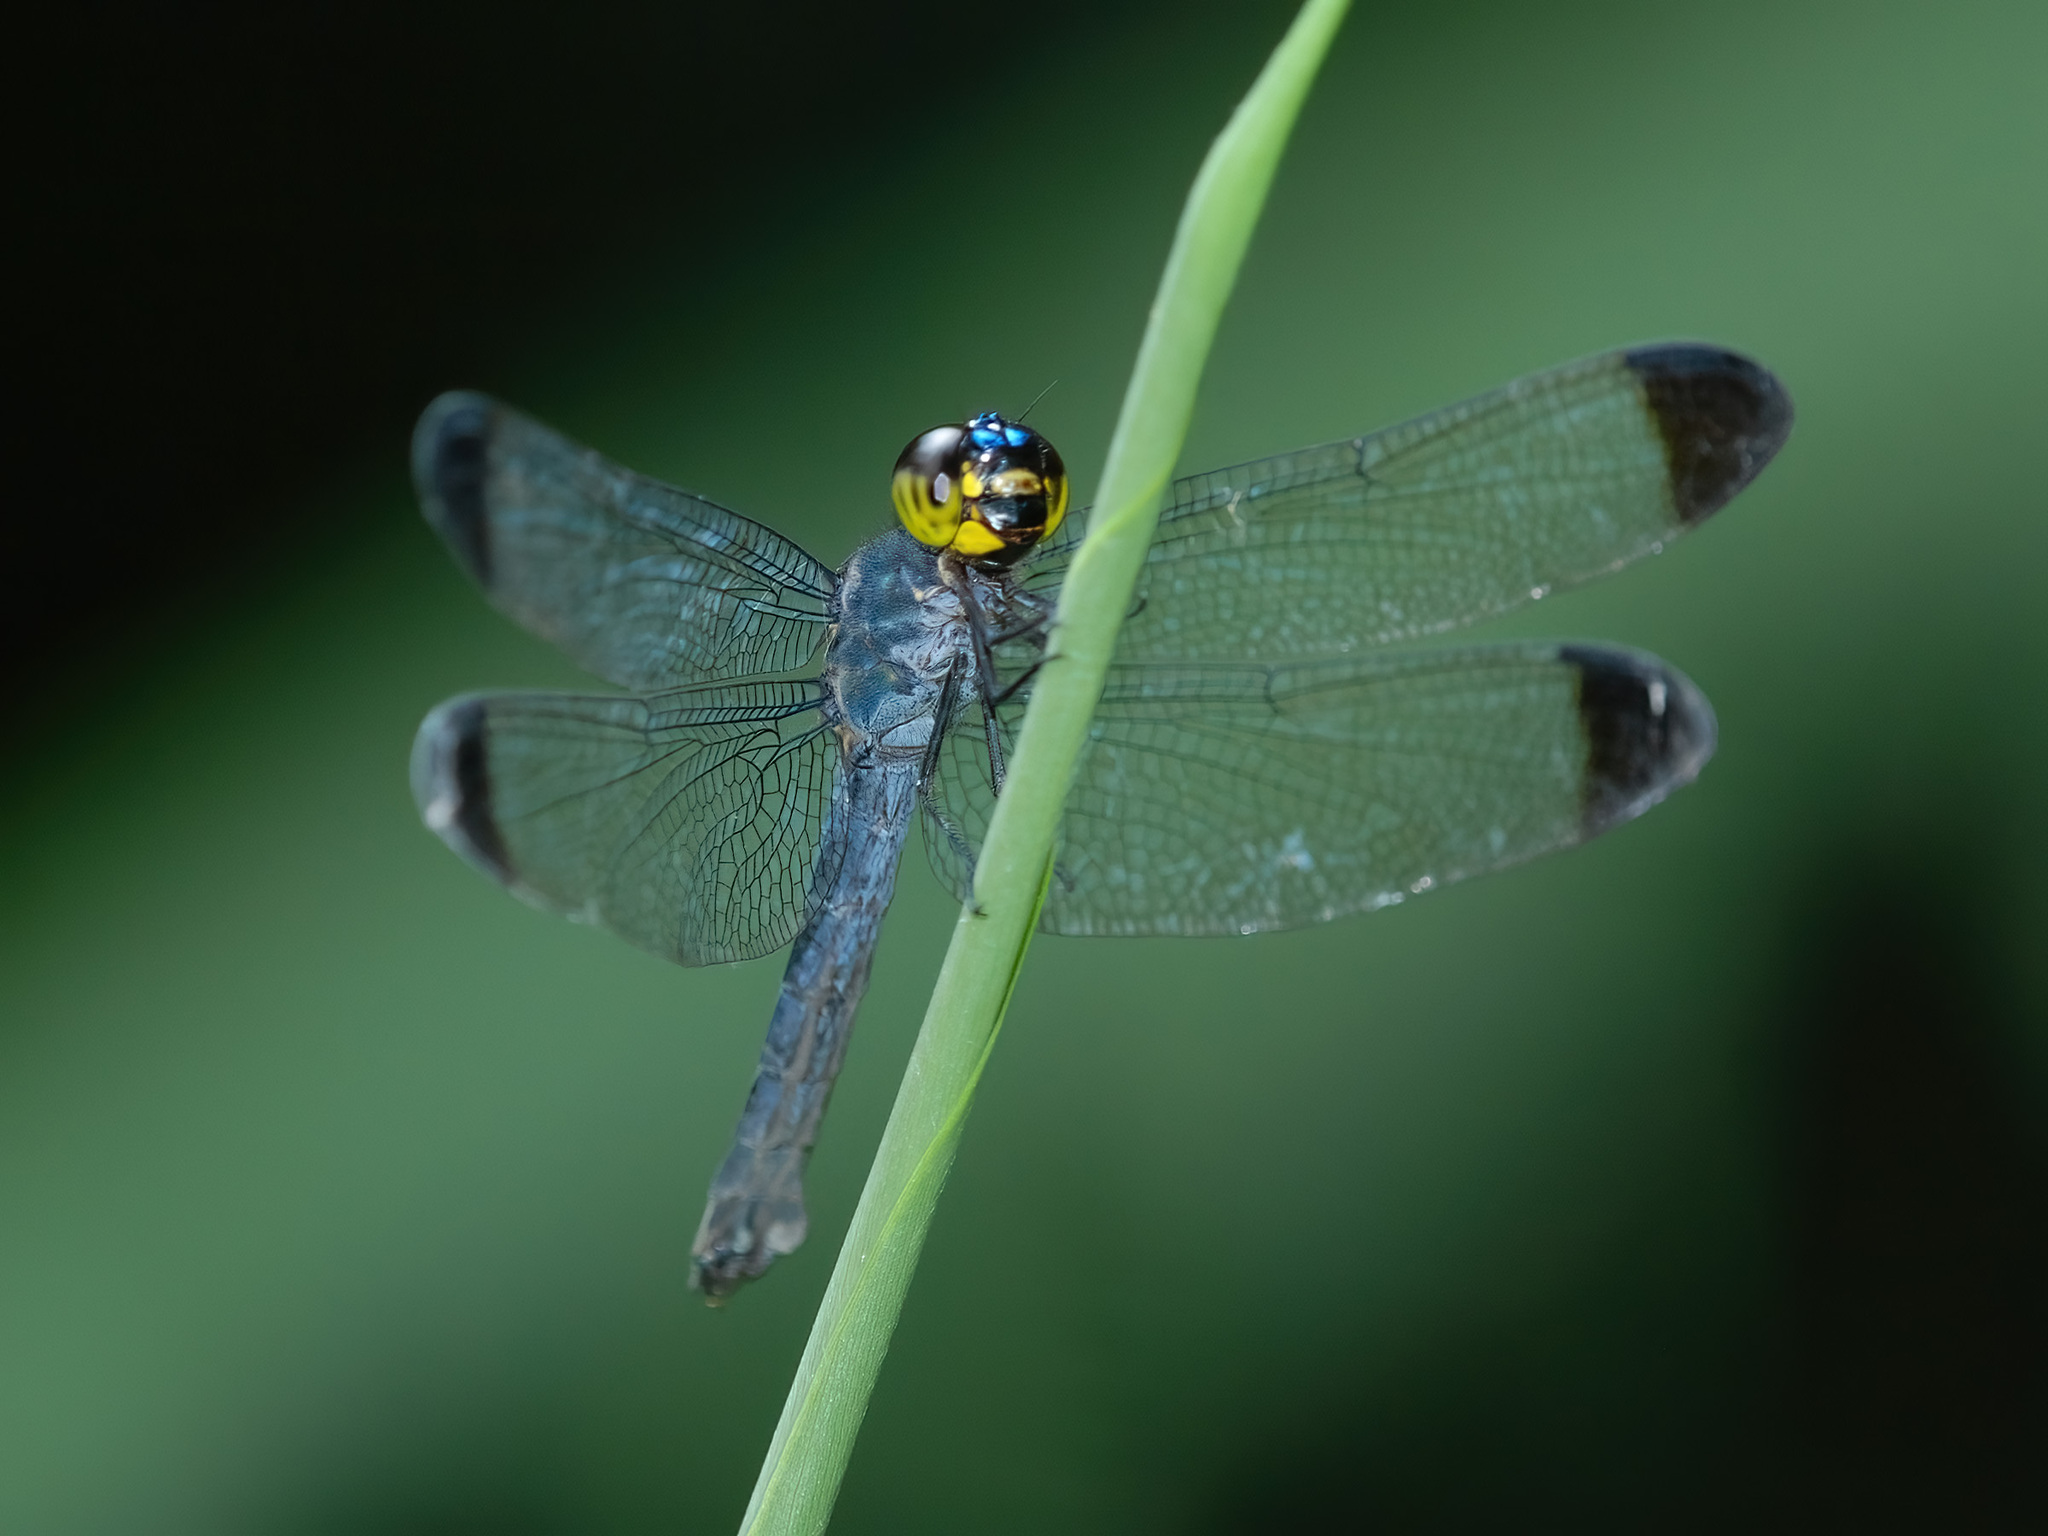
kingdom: Animalia
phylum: Arthropoda
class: Insecta
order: Odonata
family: Libellulidae
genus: Cratilla
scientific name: Cratilla metallica
